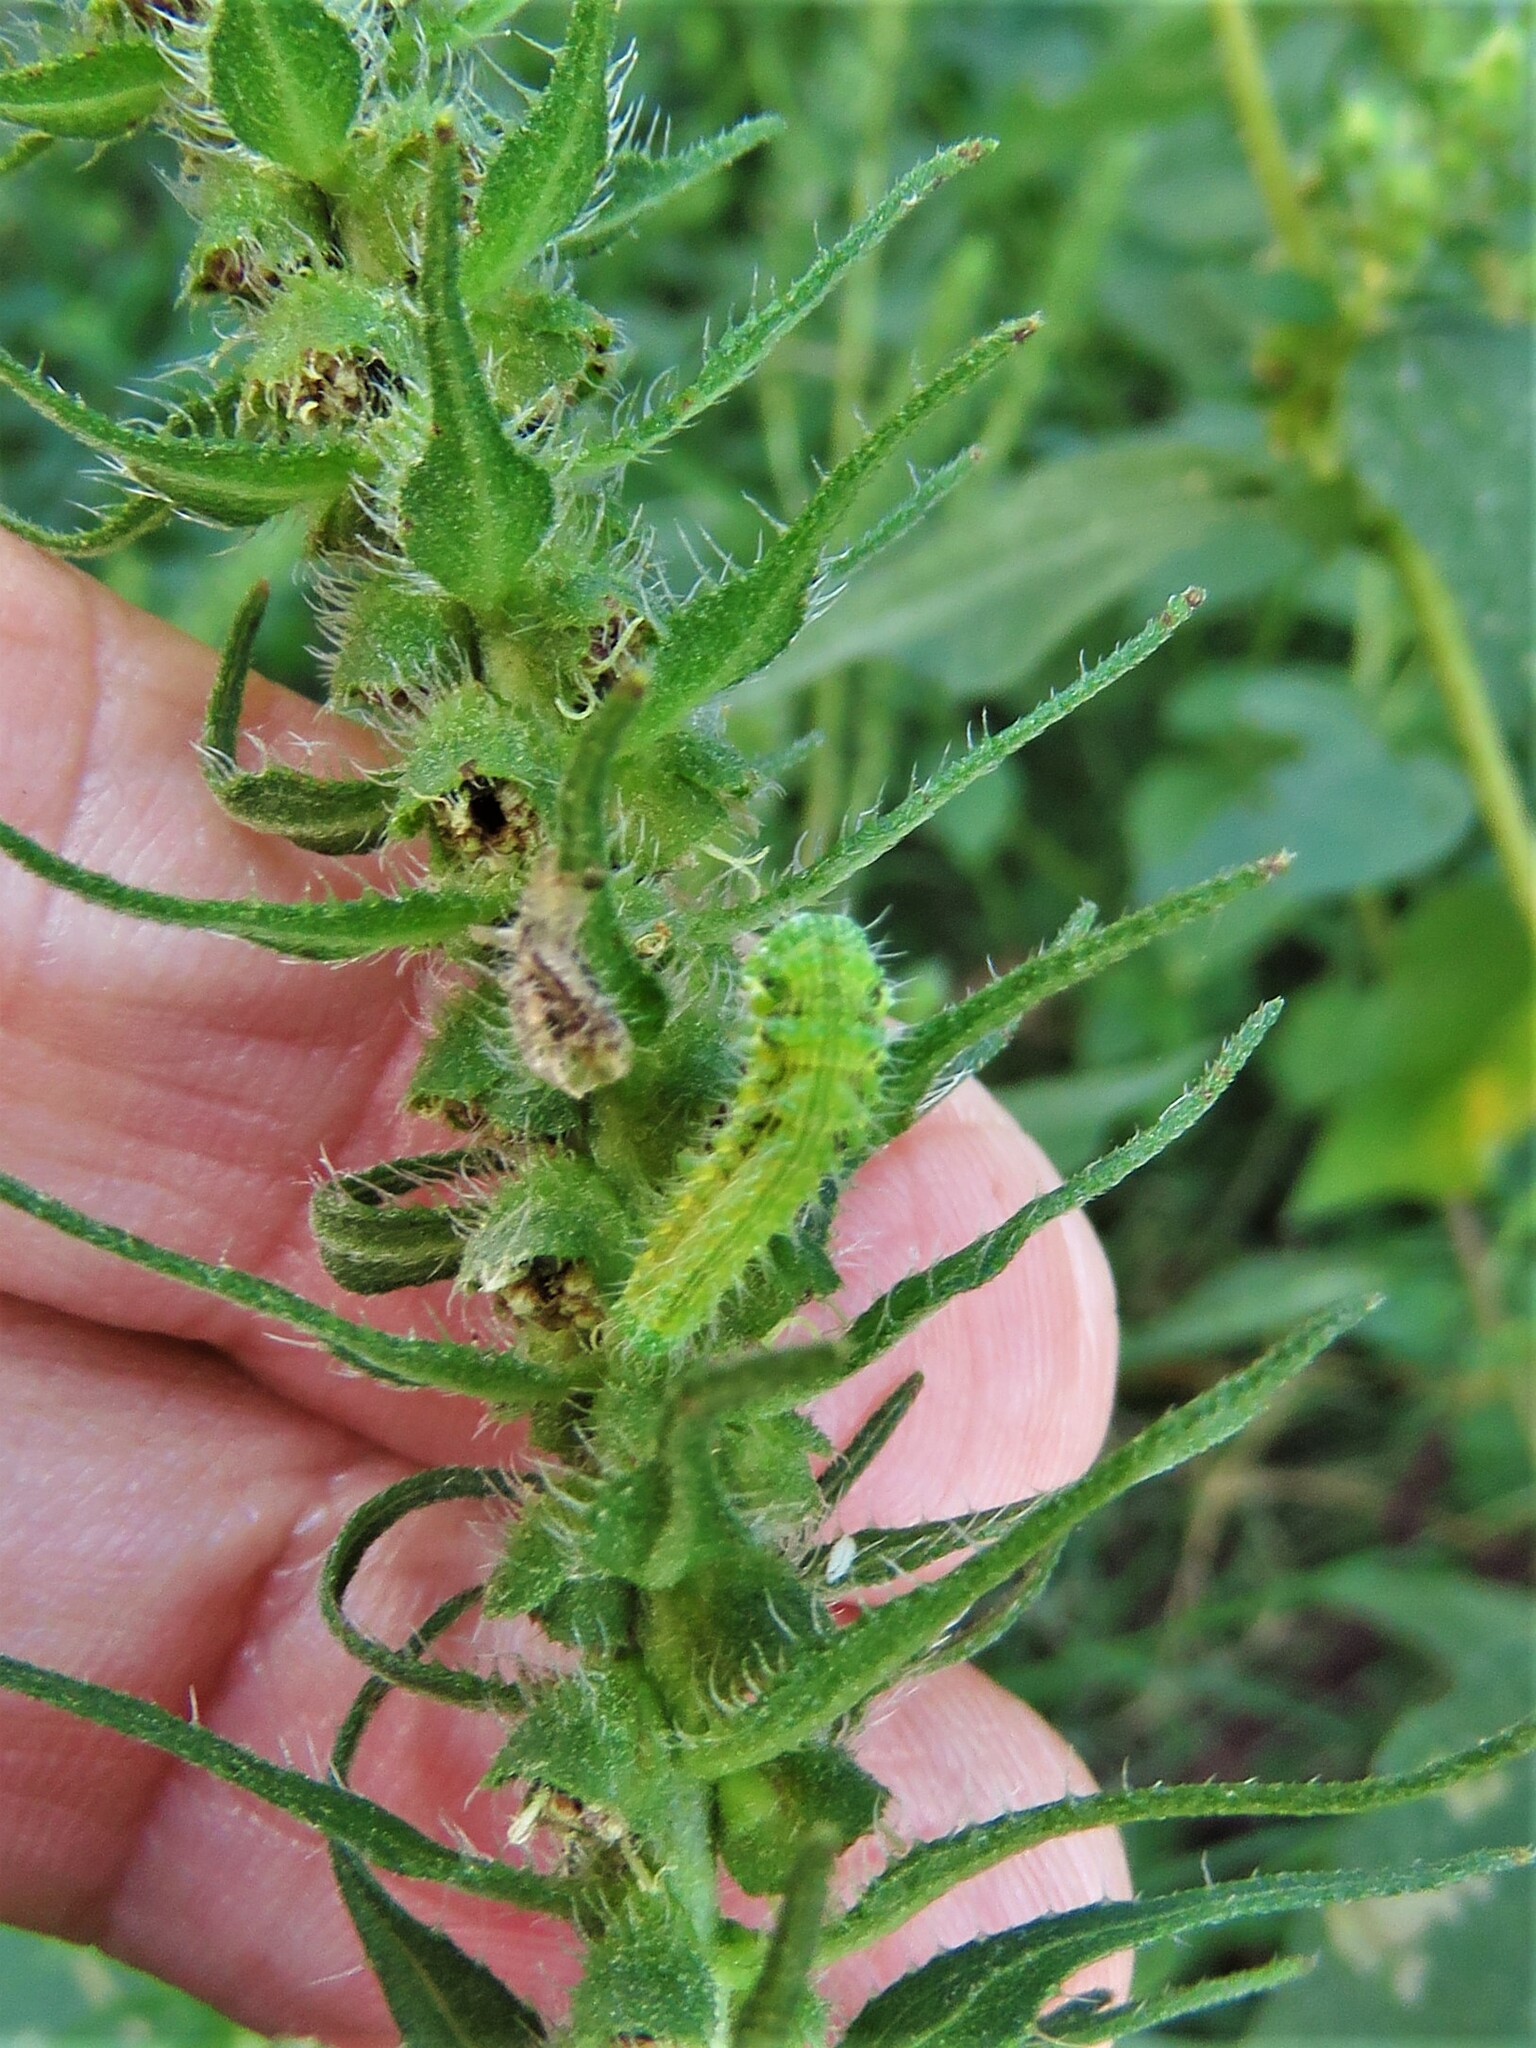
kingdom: Animalia
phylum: Arthropoda
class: Insecta
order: Lepidoptera
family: Noctuidae
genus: Schinia
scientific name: Schinia gracilenta
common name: Slender flower moth
